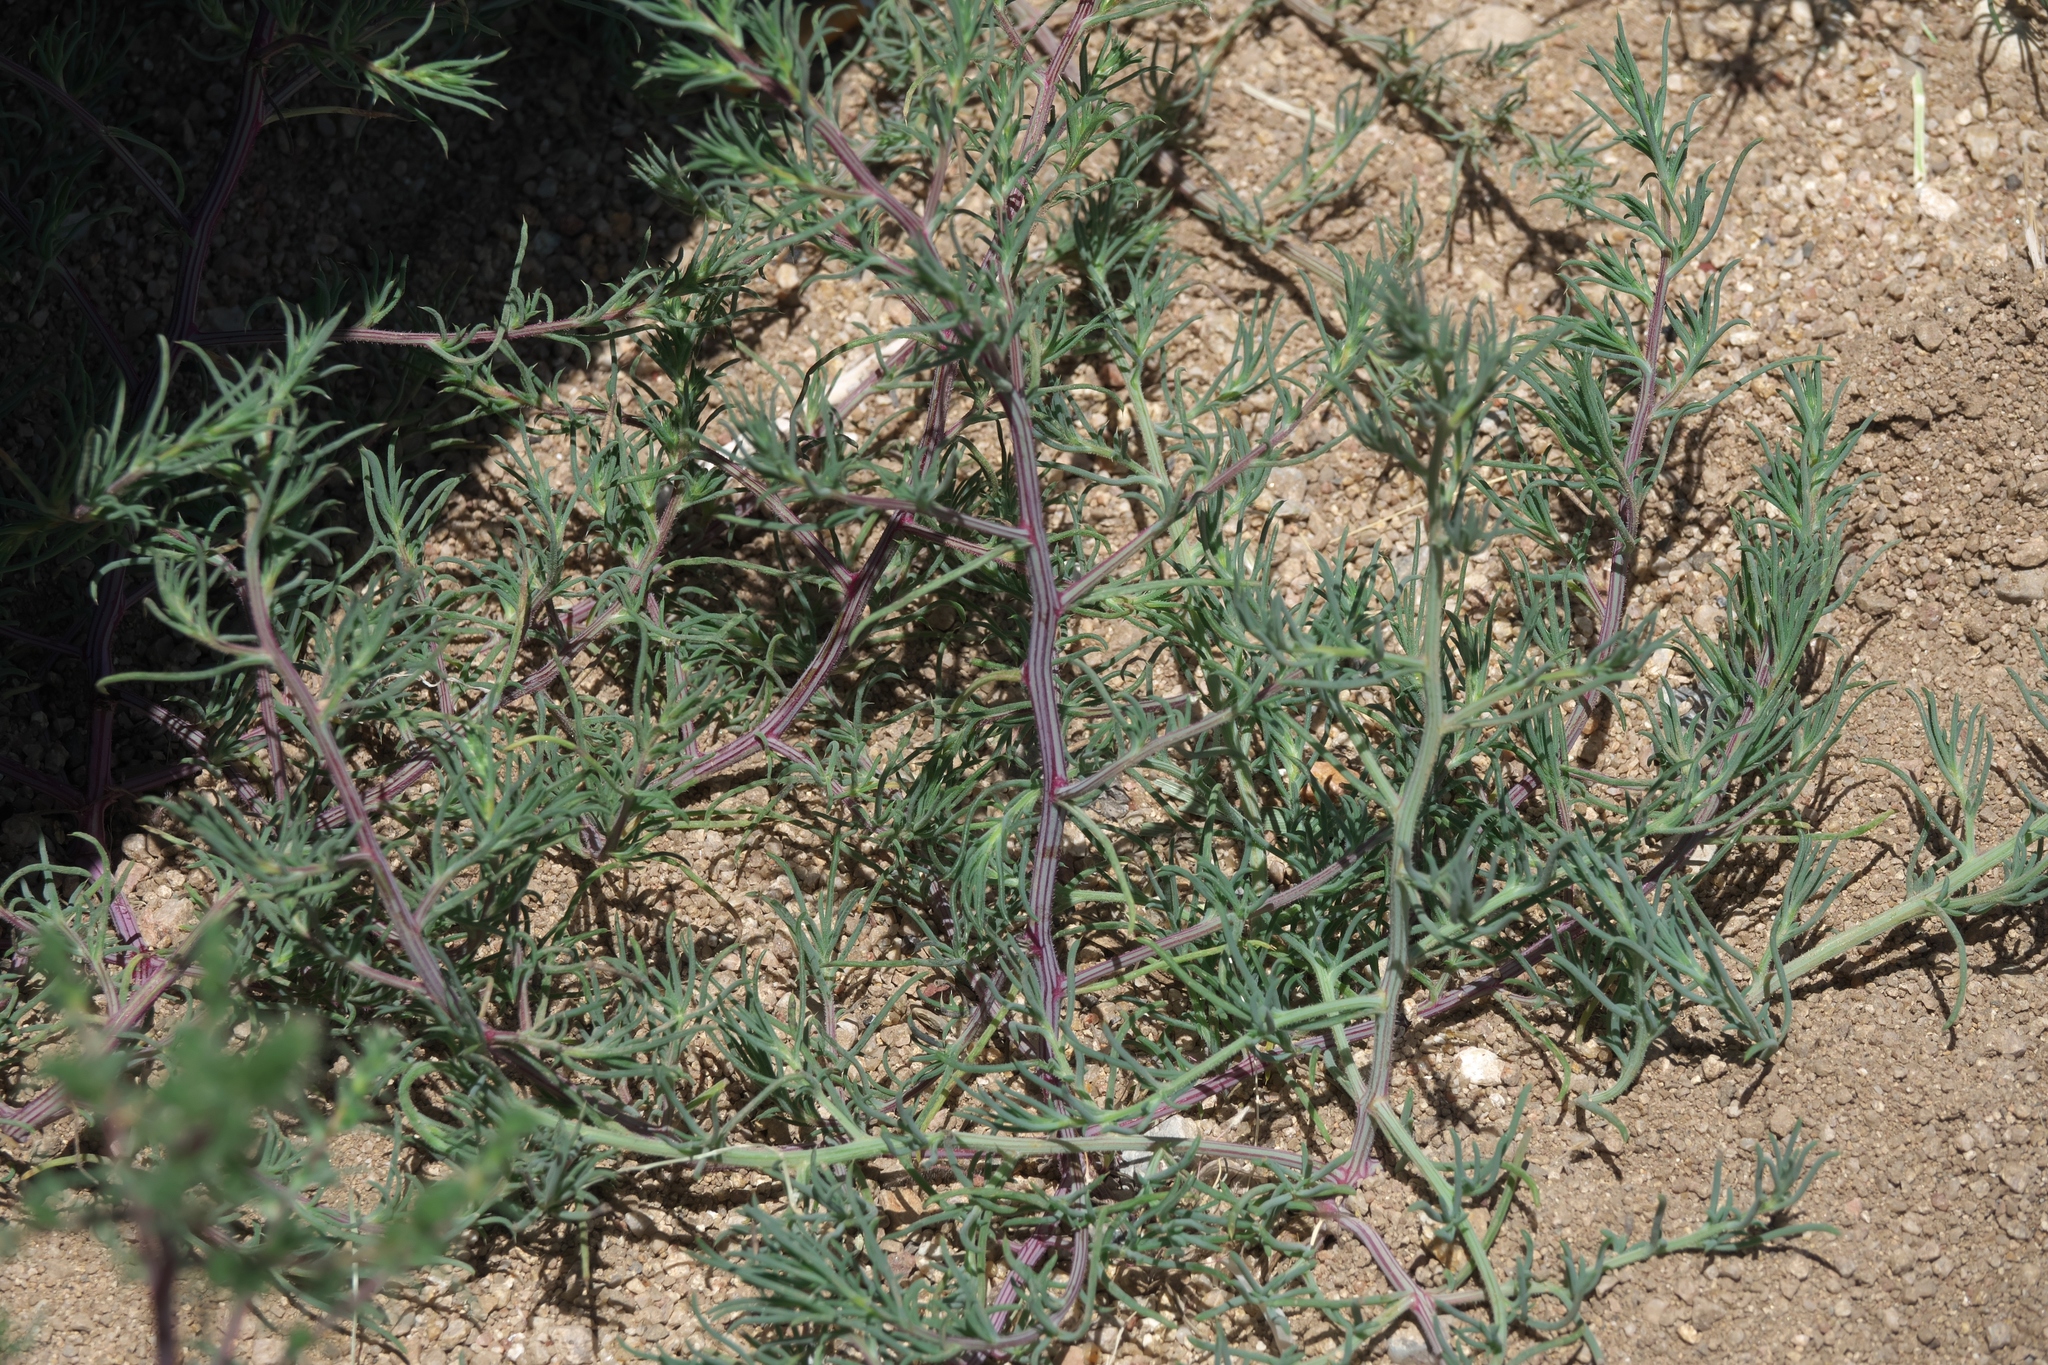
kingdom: Plantae
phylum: Tracheophyta
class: Magnoliopsida
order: Caryophyllales
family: Amaranthaceae
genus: Salsola
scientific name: Salsola tragus
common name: Prickly russian thistle
